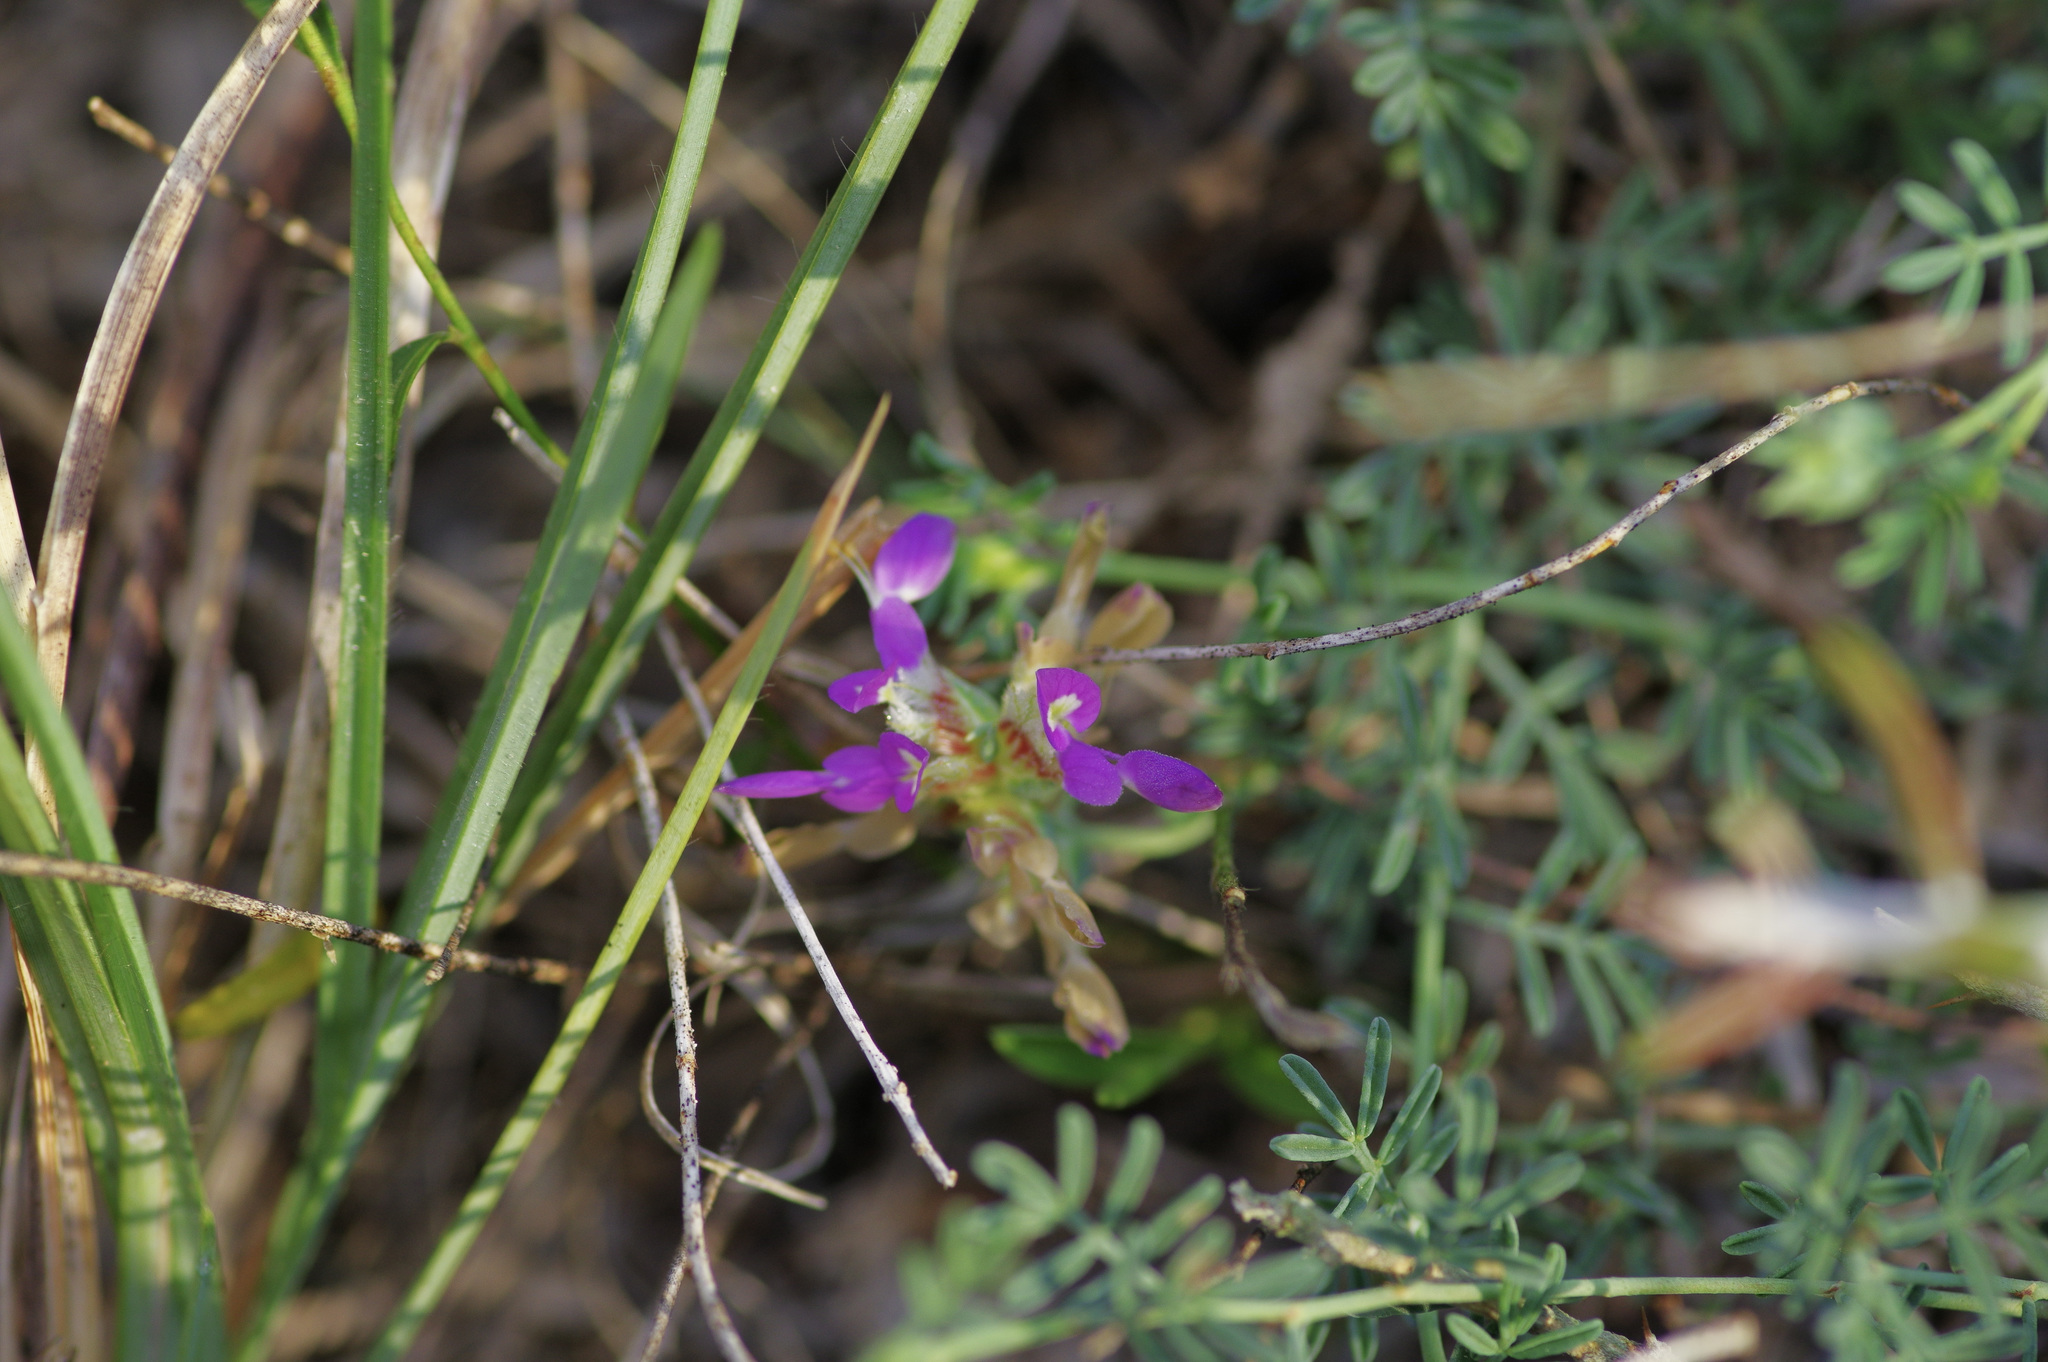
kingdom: Plantae
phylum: Tracheophyta
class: Magnoliopsida
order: Fabales
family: Fabaceae
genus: Dalea
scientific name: Dalea frutescens
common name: Black dalea
